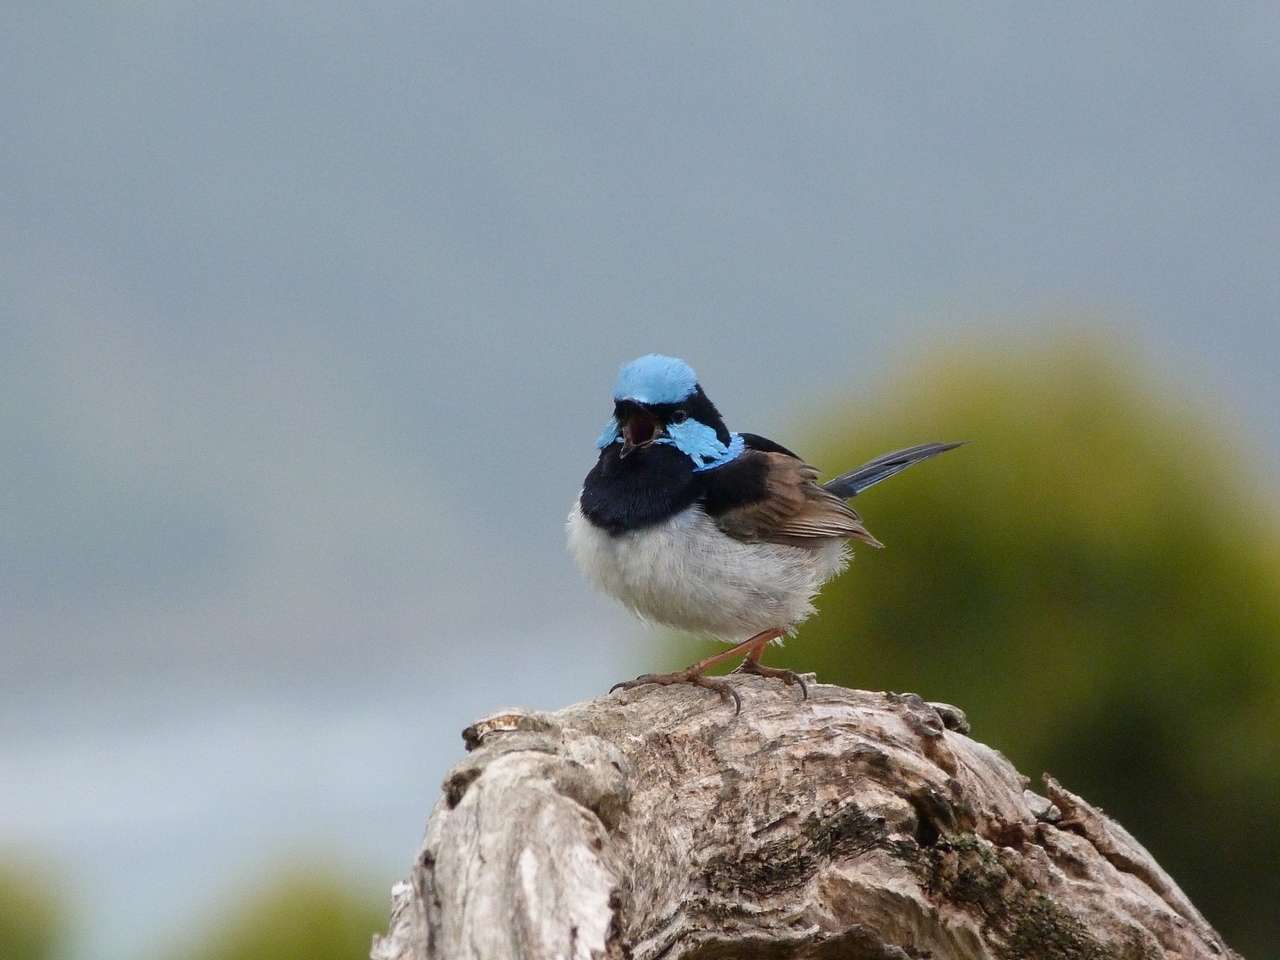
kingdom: Animalia
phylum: Chordata
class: Aves
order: Passeriformes
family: Maluridae
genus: Malurus
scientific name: Malurus cyaneus
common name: Superb fairywren
